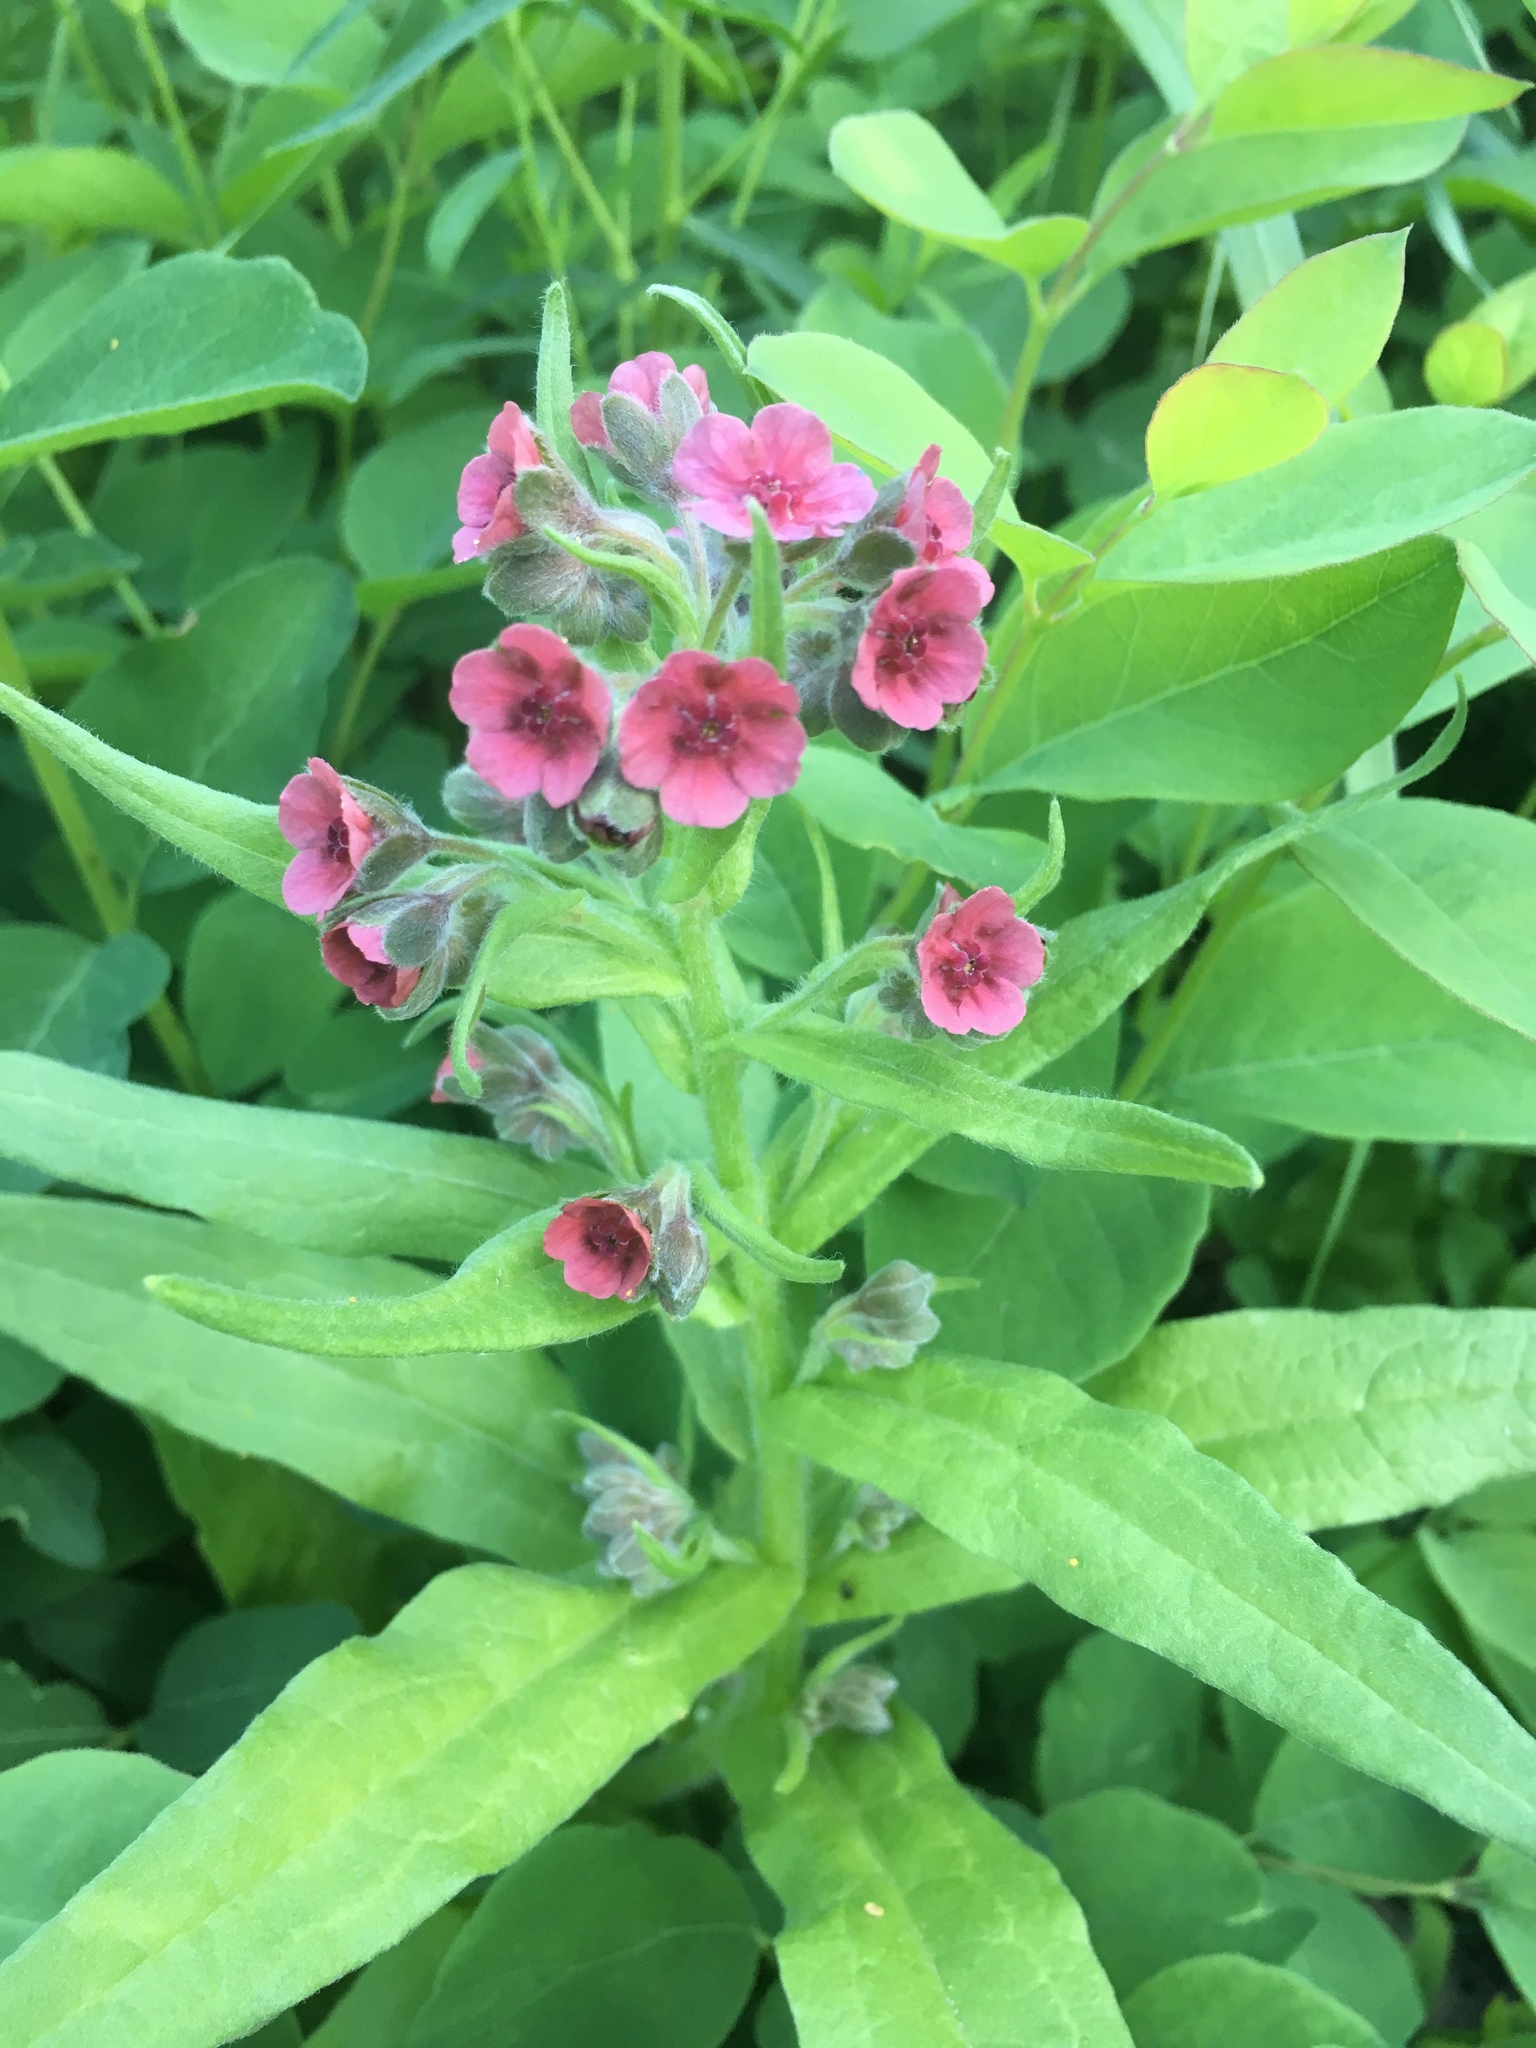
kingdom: Plantae
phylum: Tracheophyta
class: Magnoliopsida
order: Boraginales
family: Boraginaceae
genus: Cynoglossum
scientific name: Cynoglossum officinale
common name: Hound's-tongue
